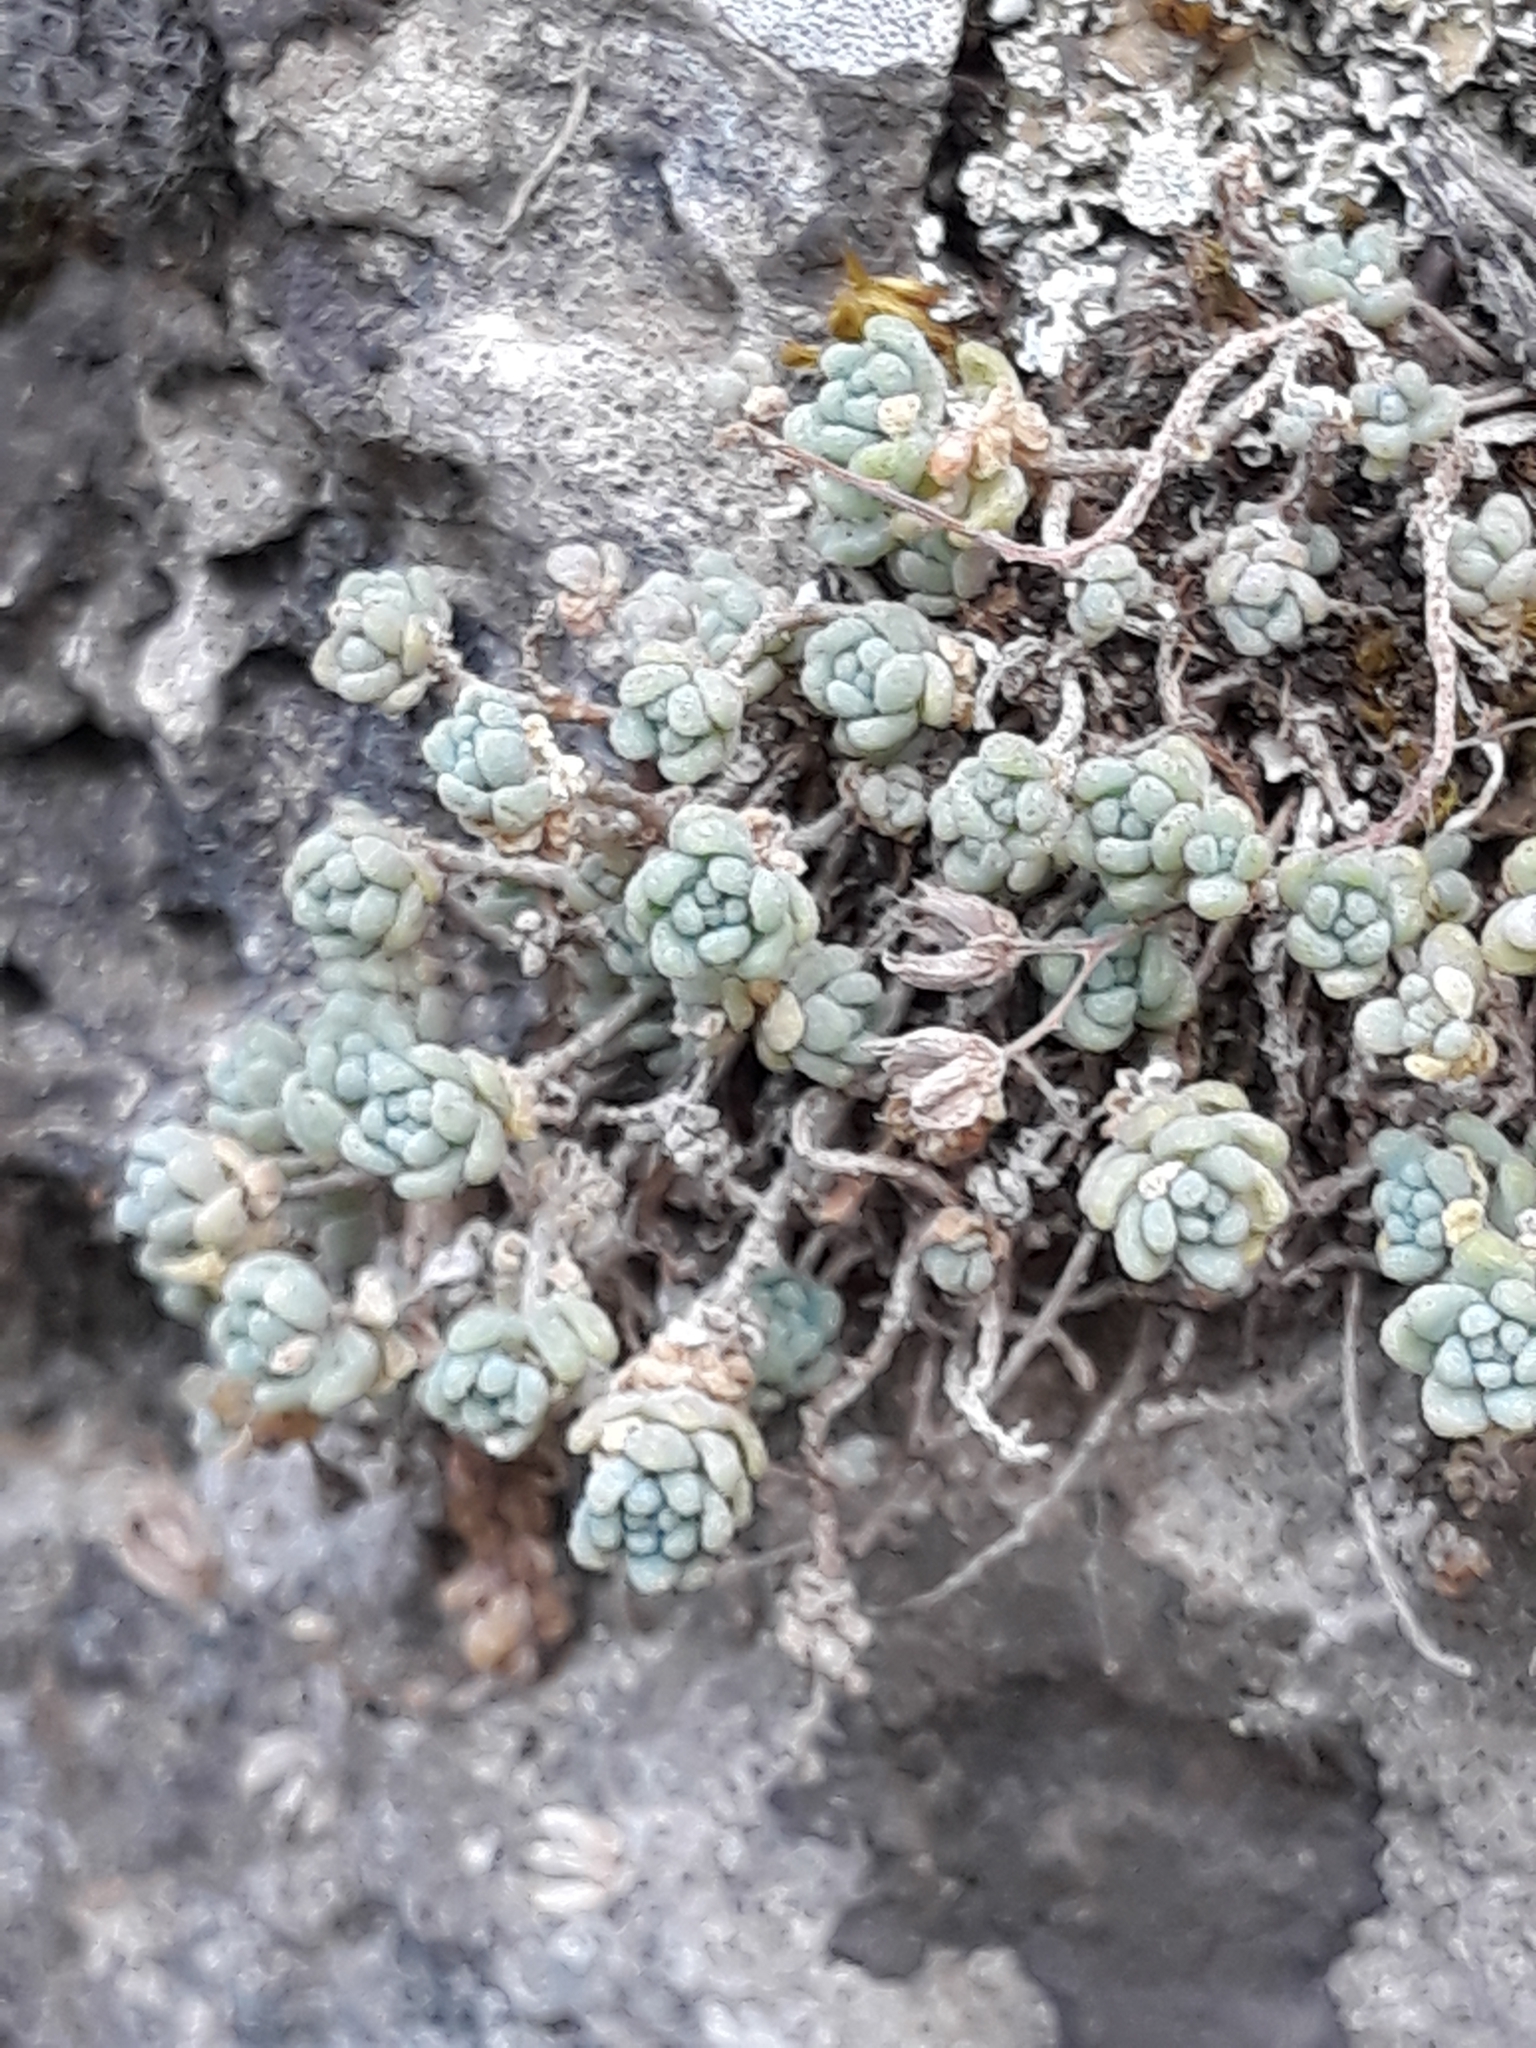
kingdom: Plantae
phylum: Tracheophyta
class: Magnoliopsida
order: Saxifragales
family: Crassulaceae
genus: Sedum
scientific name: Sedum dasyphyllum
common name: Thick-leaf stonecrop
